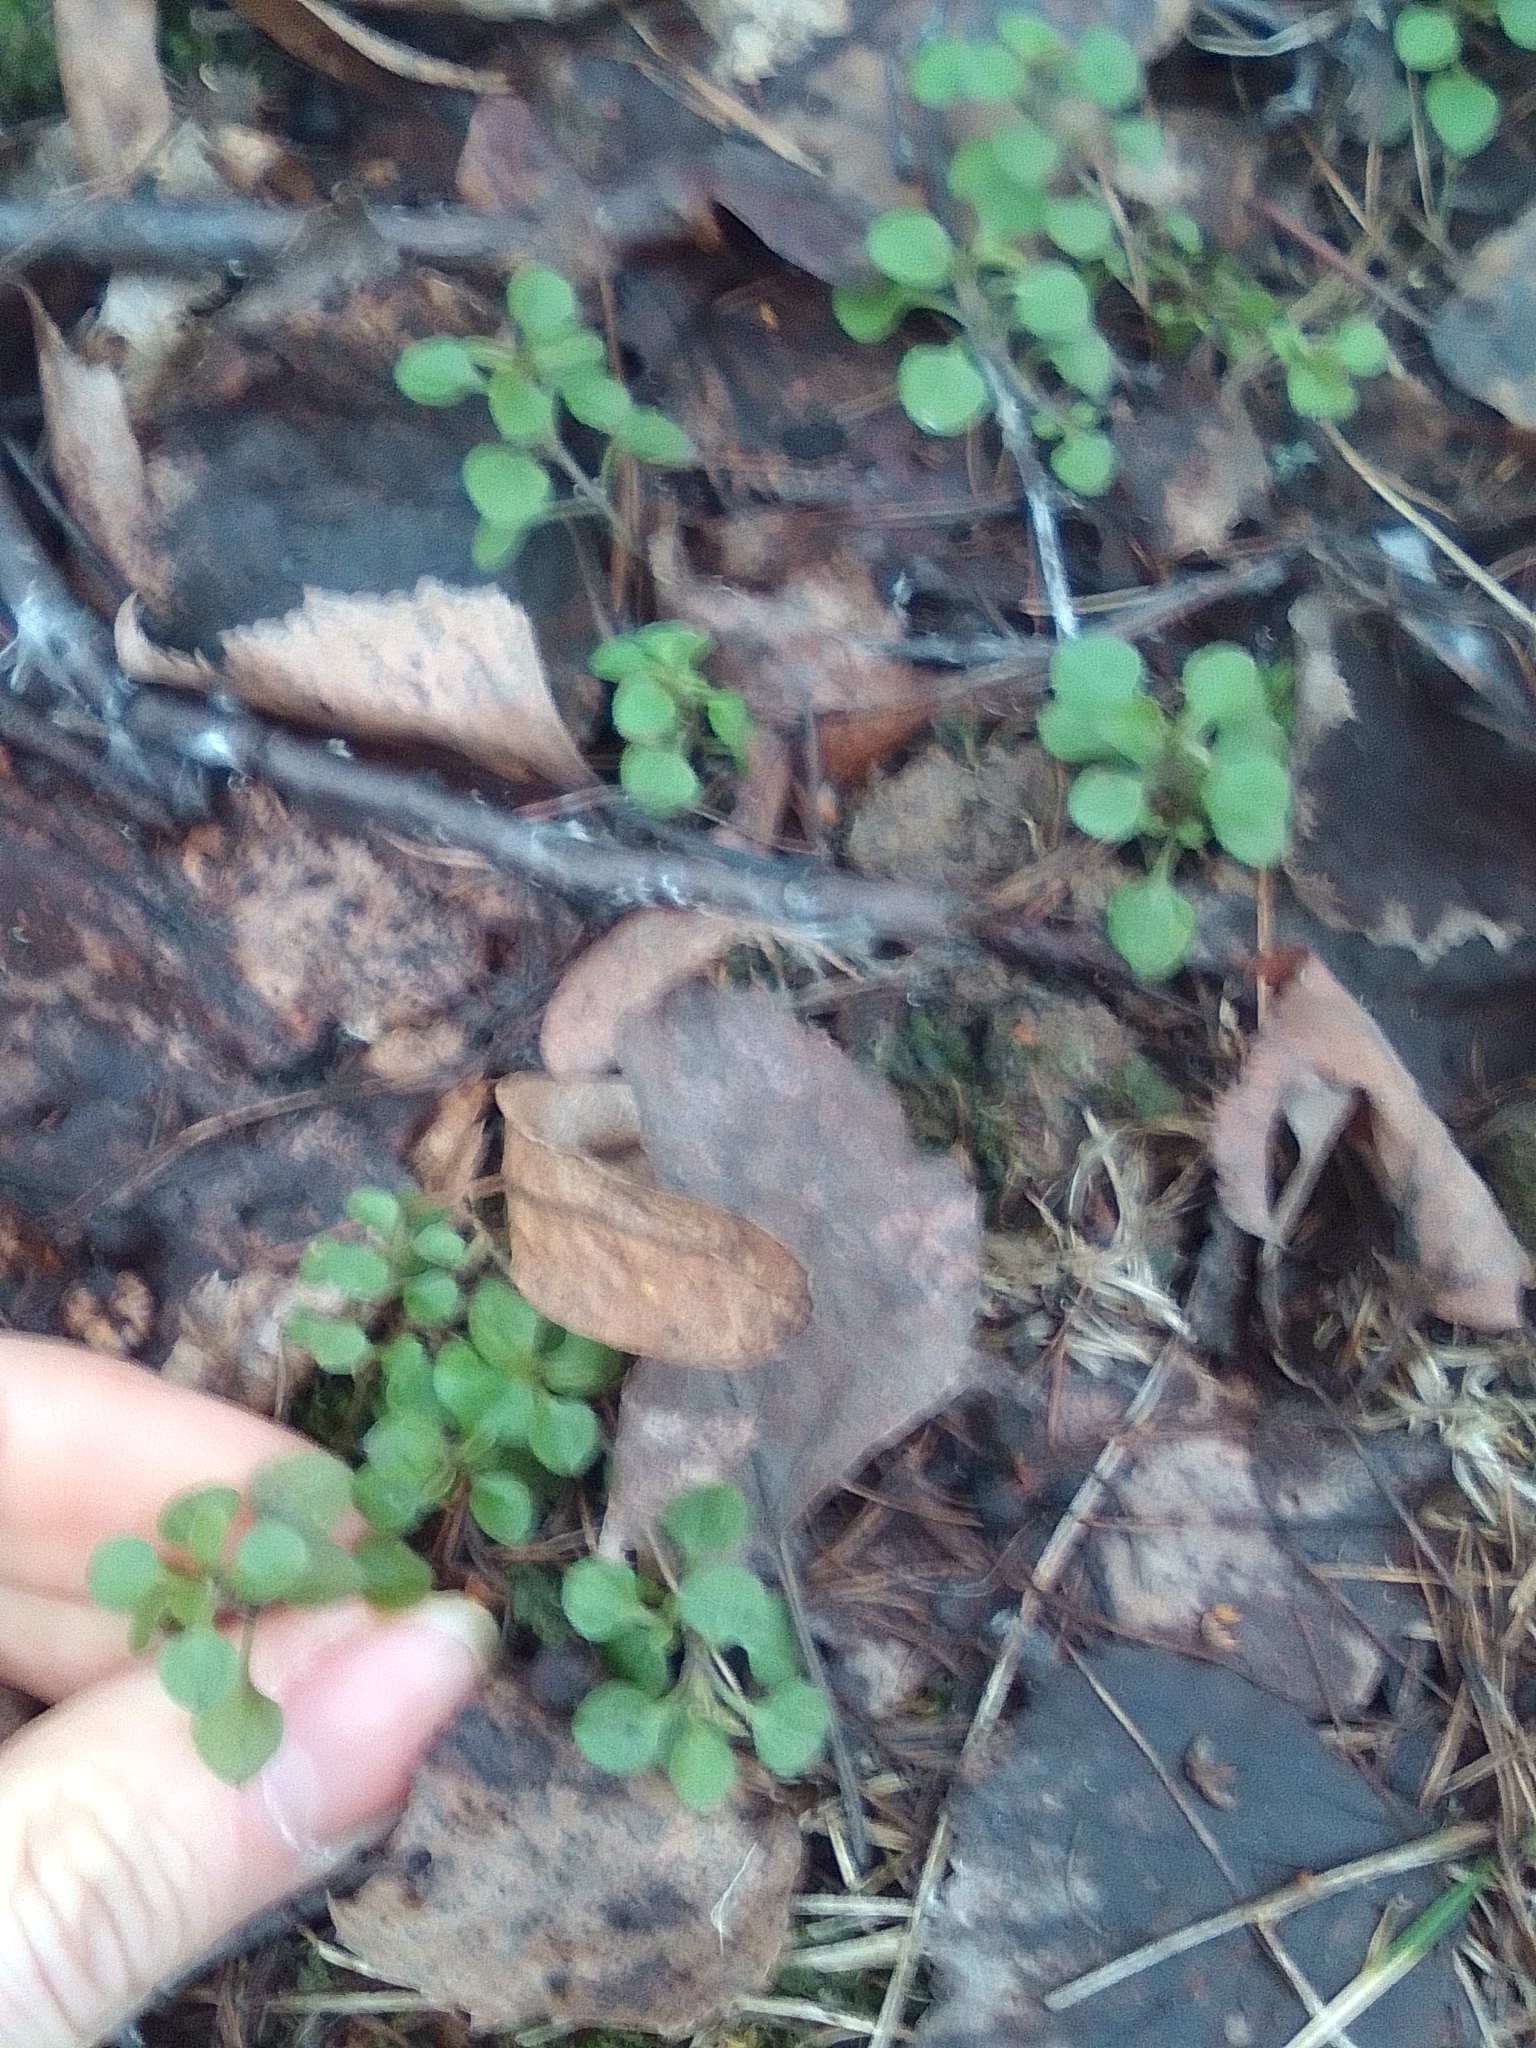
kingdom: Plantae
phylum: Tracheophyta
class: Magnoliopsida
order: Caryophyllales
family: Caryophyllaceae
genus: Moehringia
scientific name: Moehringia trinervia
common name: Three-nerved sandwort
